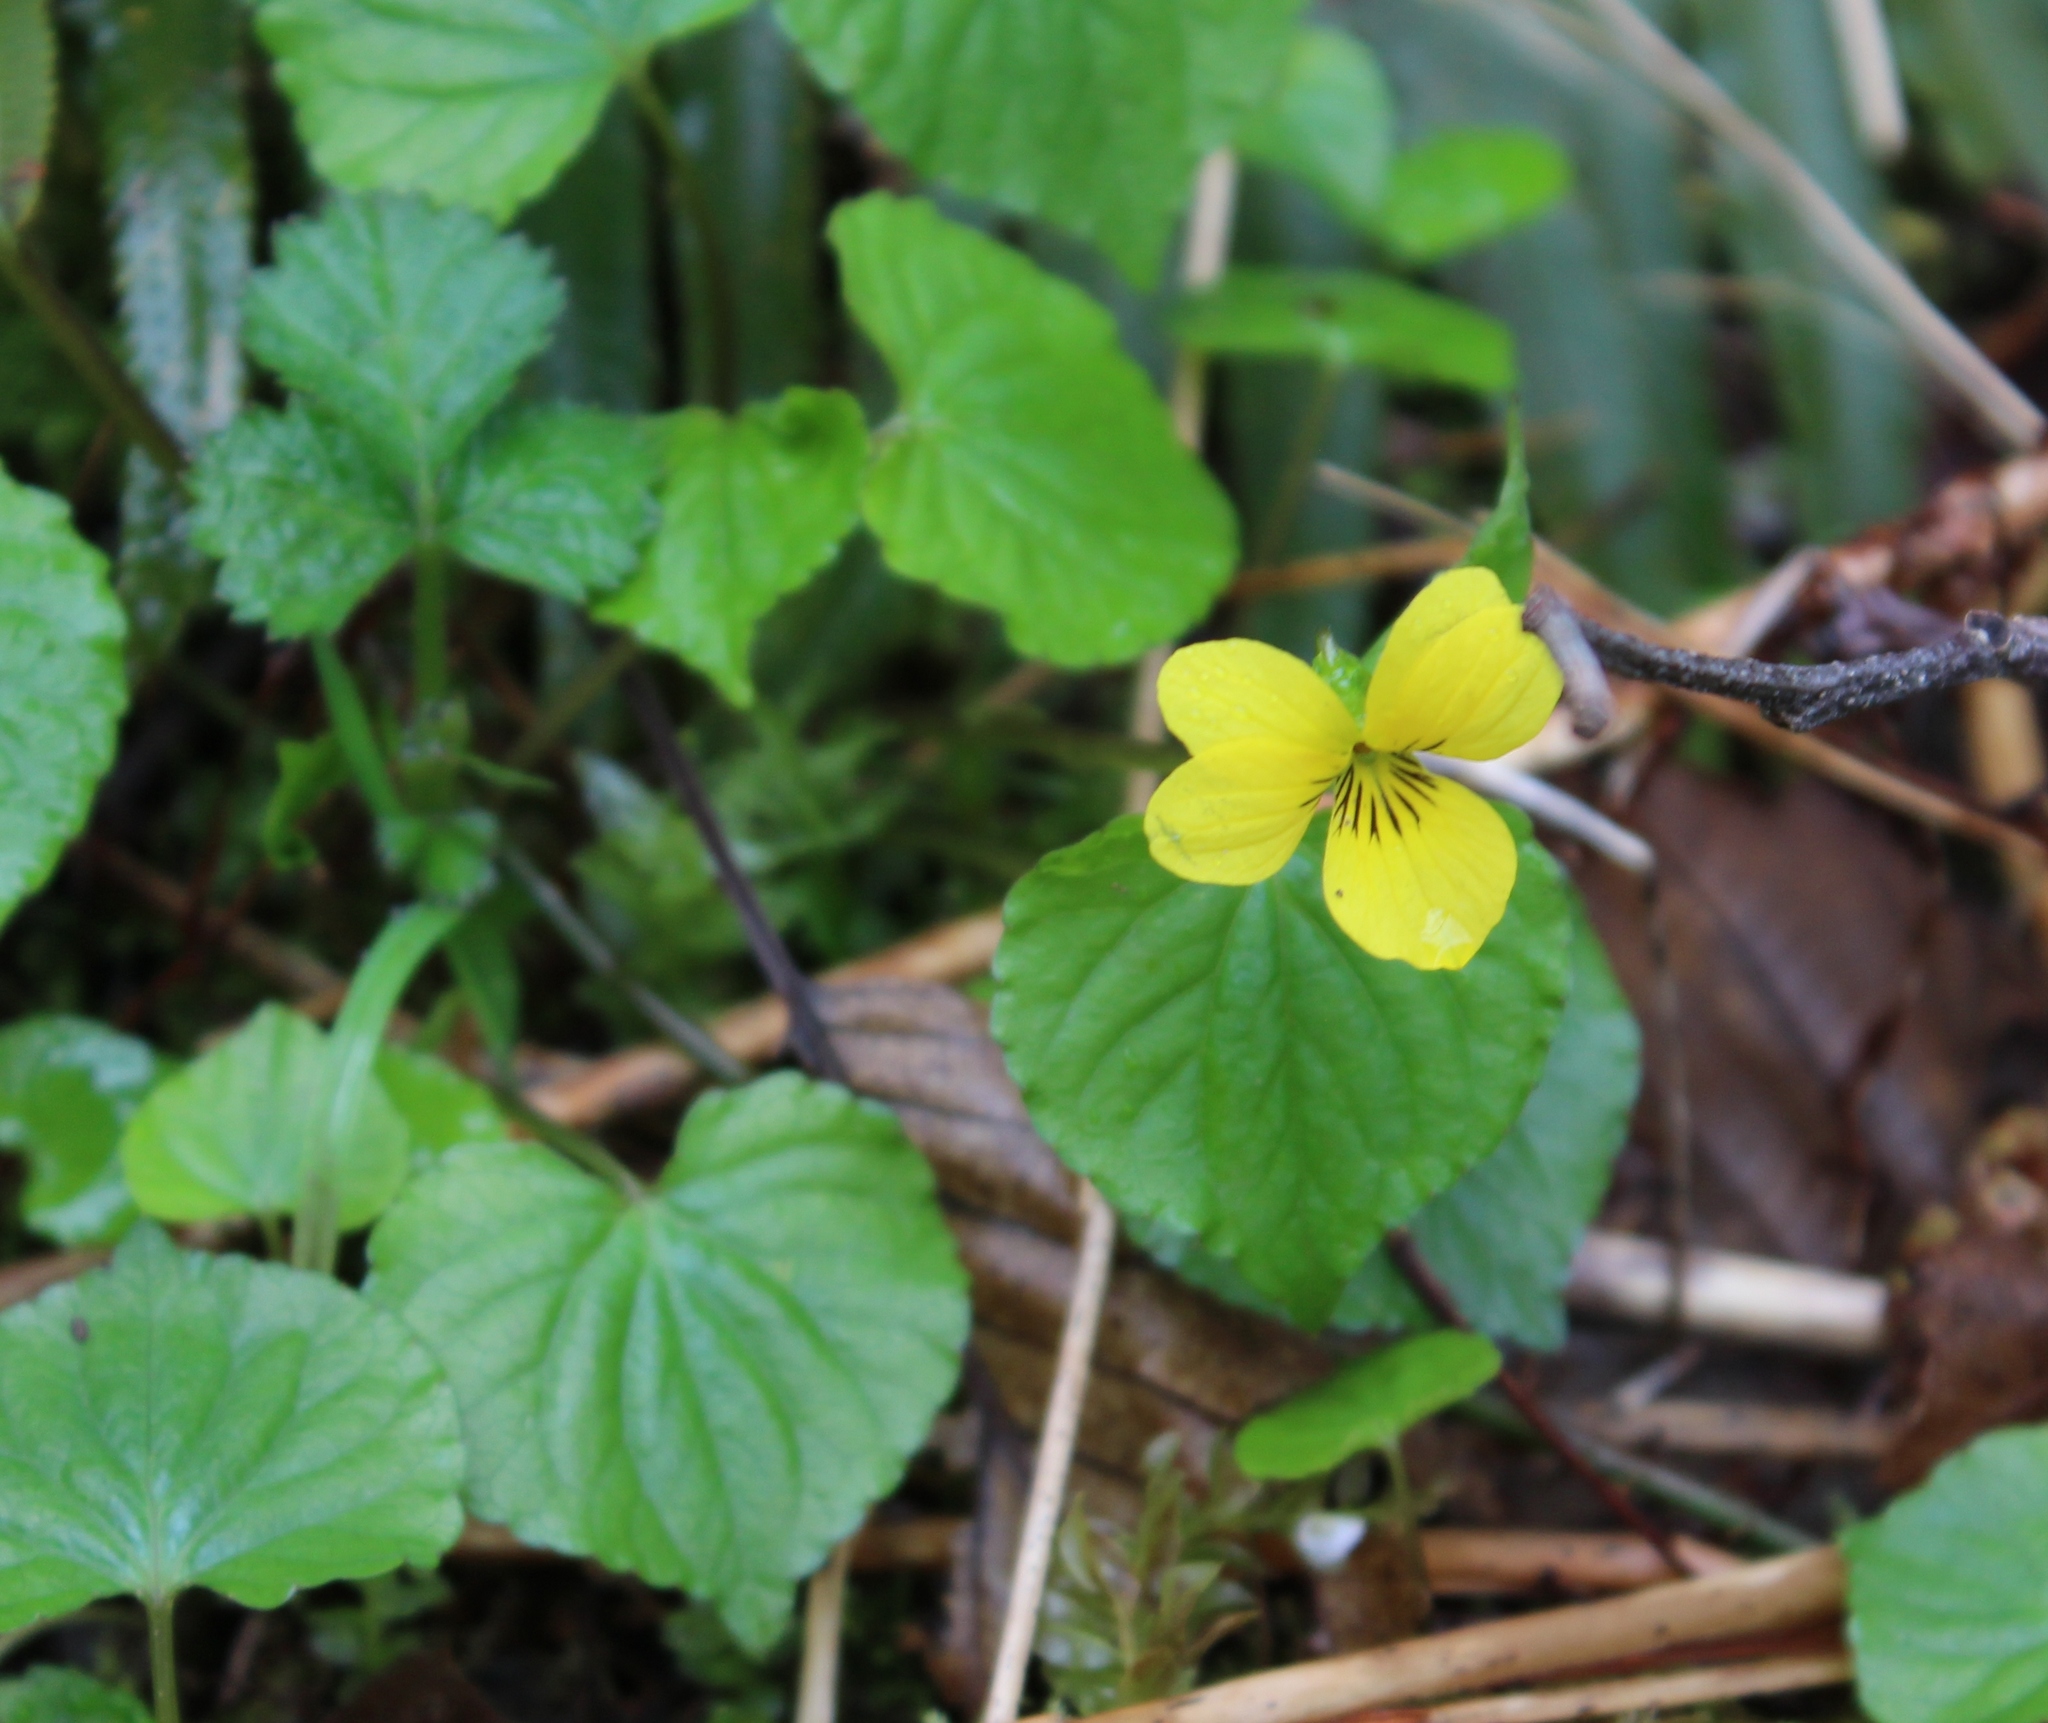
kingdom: Plantae
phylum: Tracheophyta
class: Magnoliopsida
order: Malpighiales
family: Violaceae
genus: Viola
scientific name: Viola glabella
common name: Stream violet
